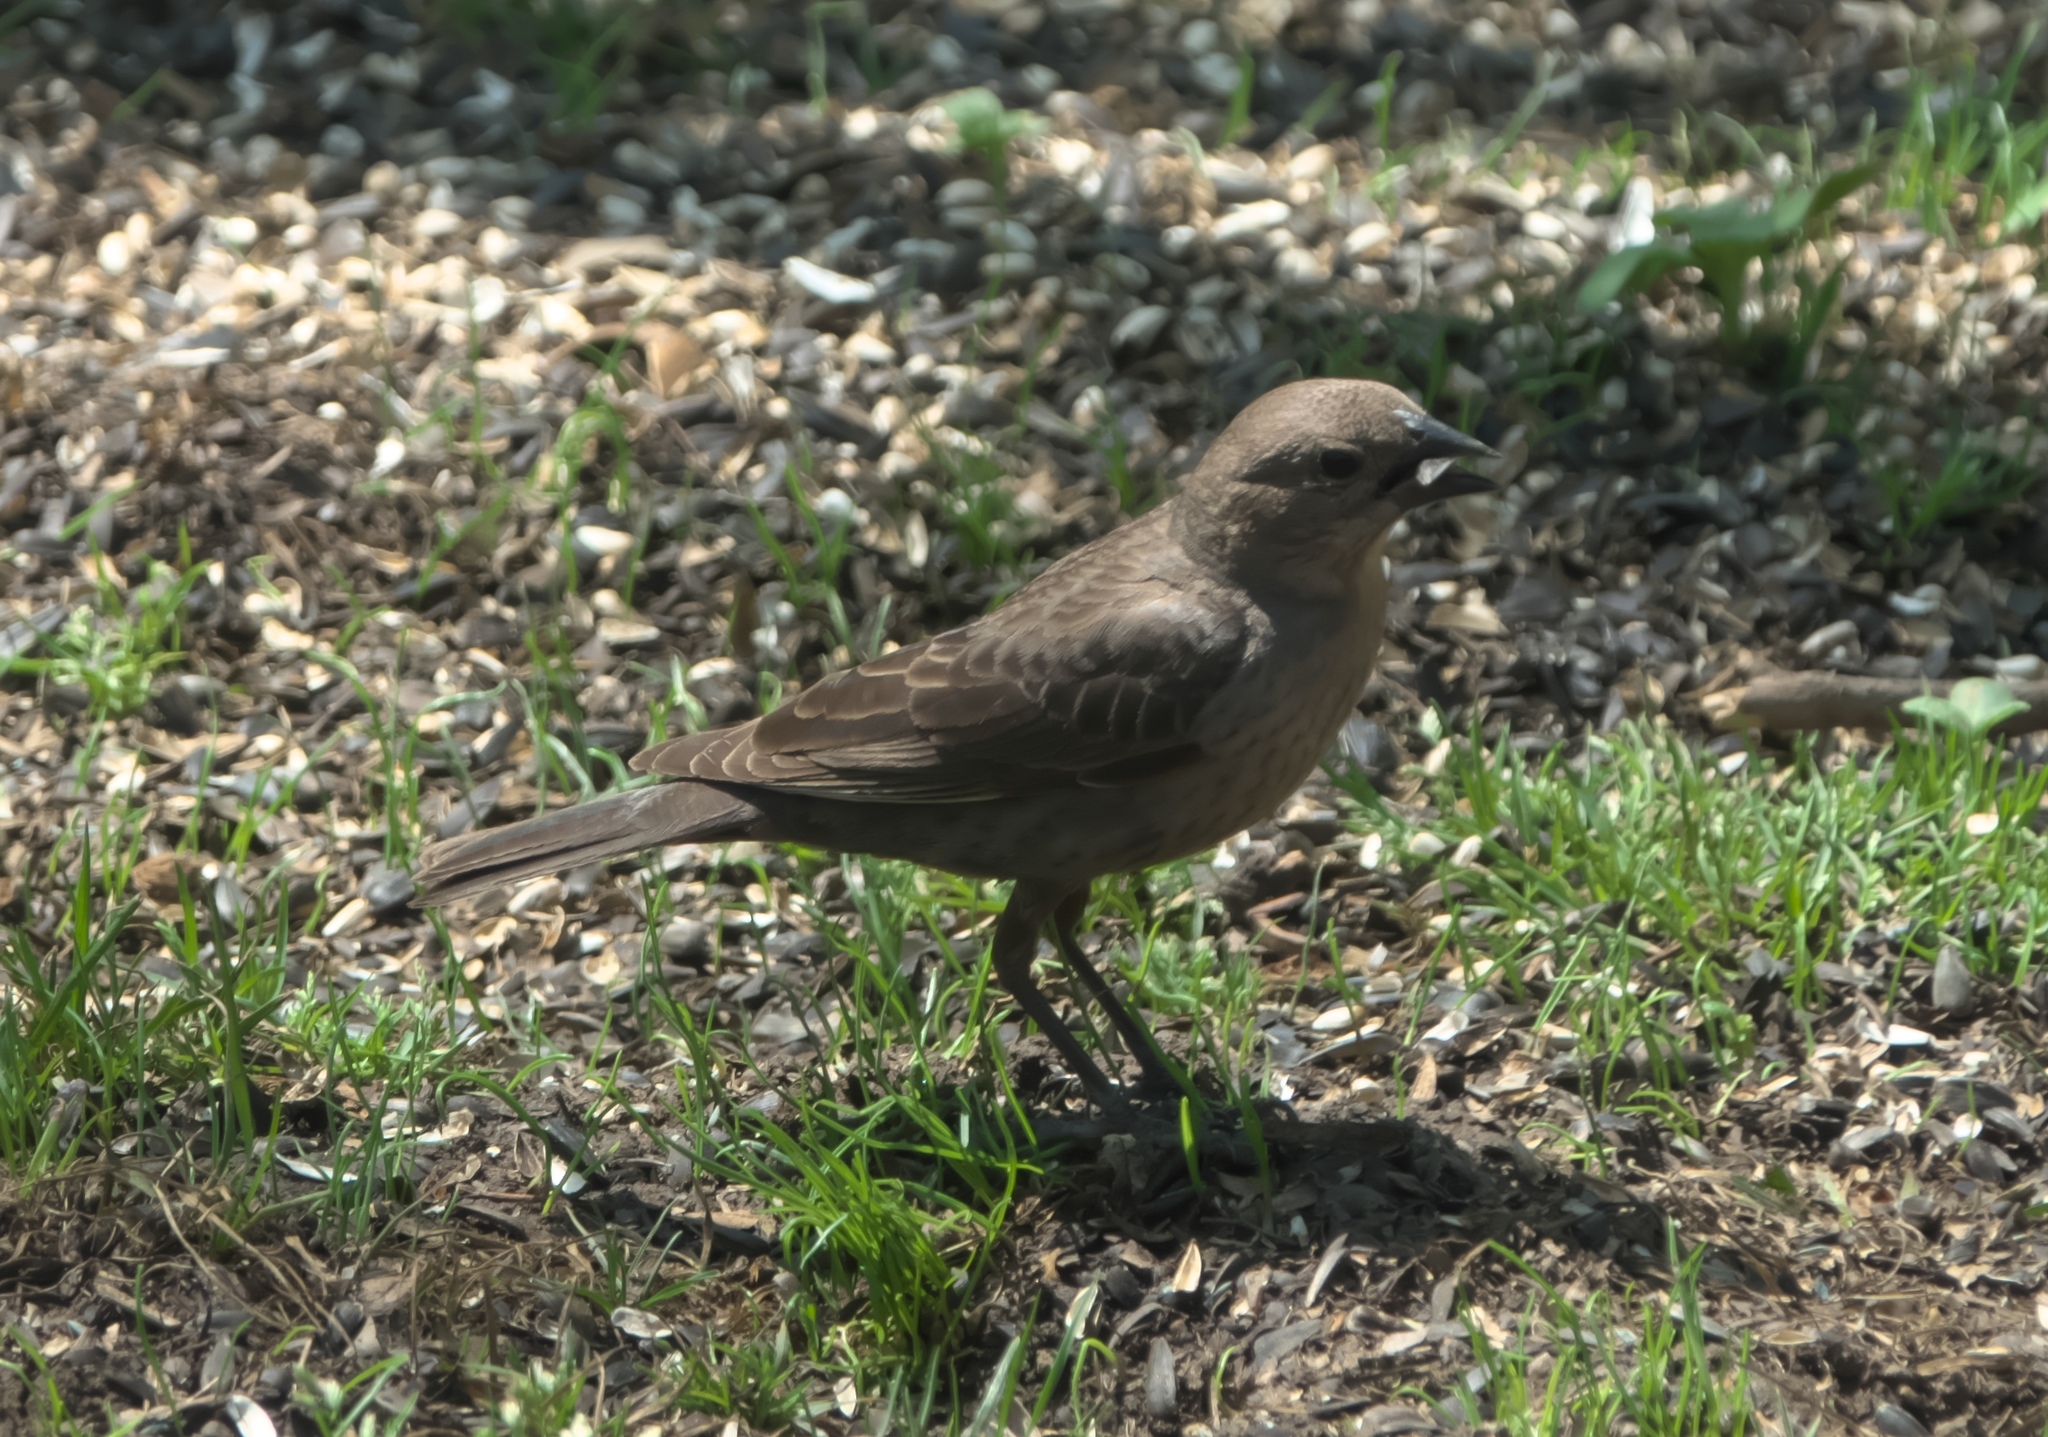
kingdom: Animalia
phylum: Chordata
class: Aves
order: Passeriformes
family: Icteridae
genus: Molothrus
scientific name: Molothrus ater
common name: Brown-headed cowbird
